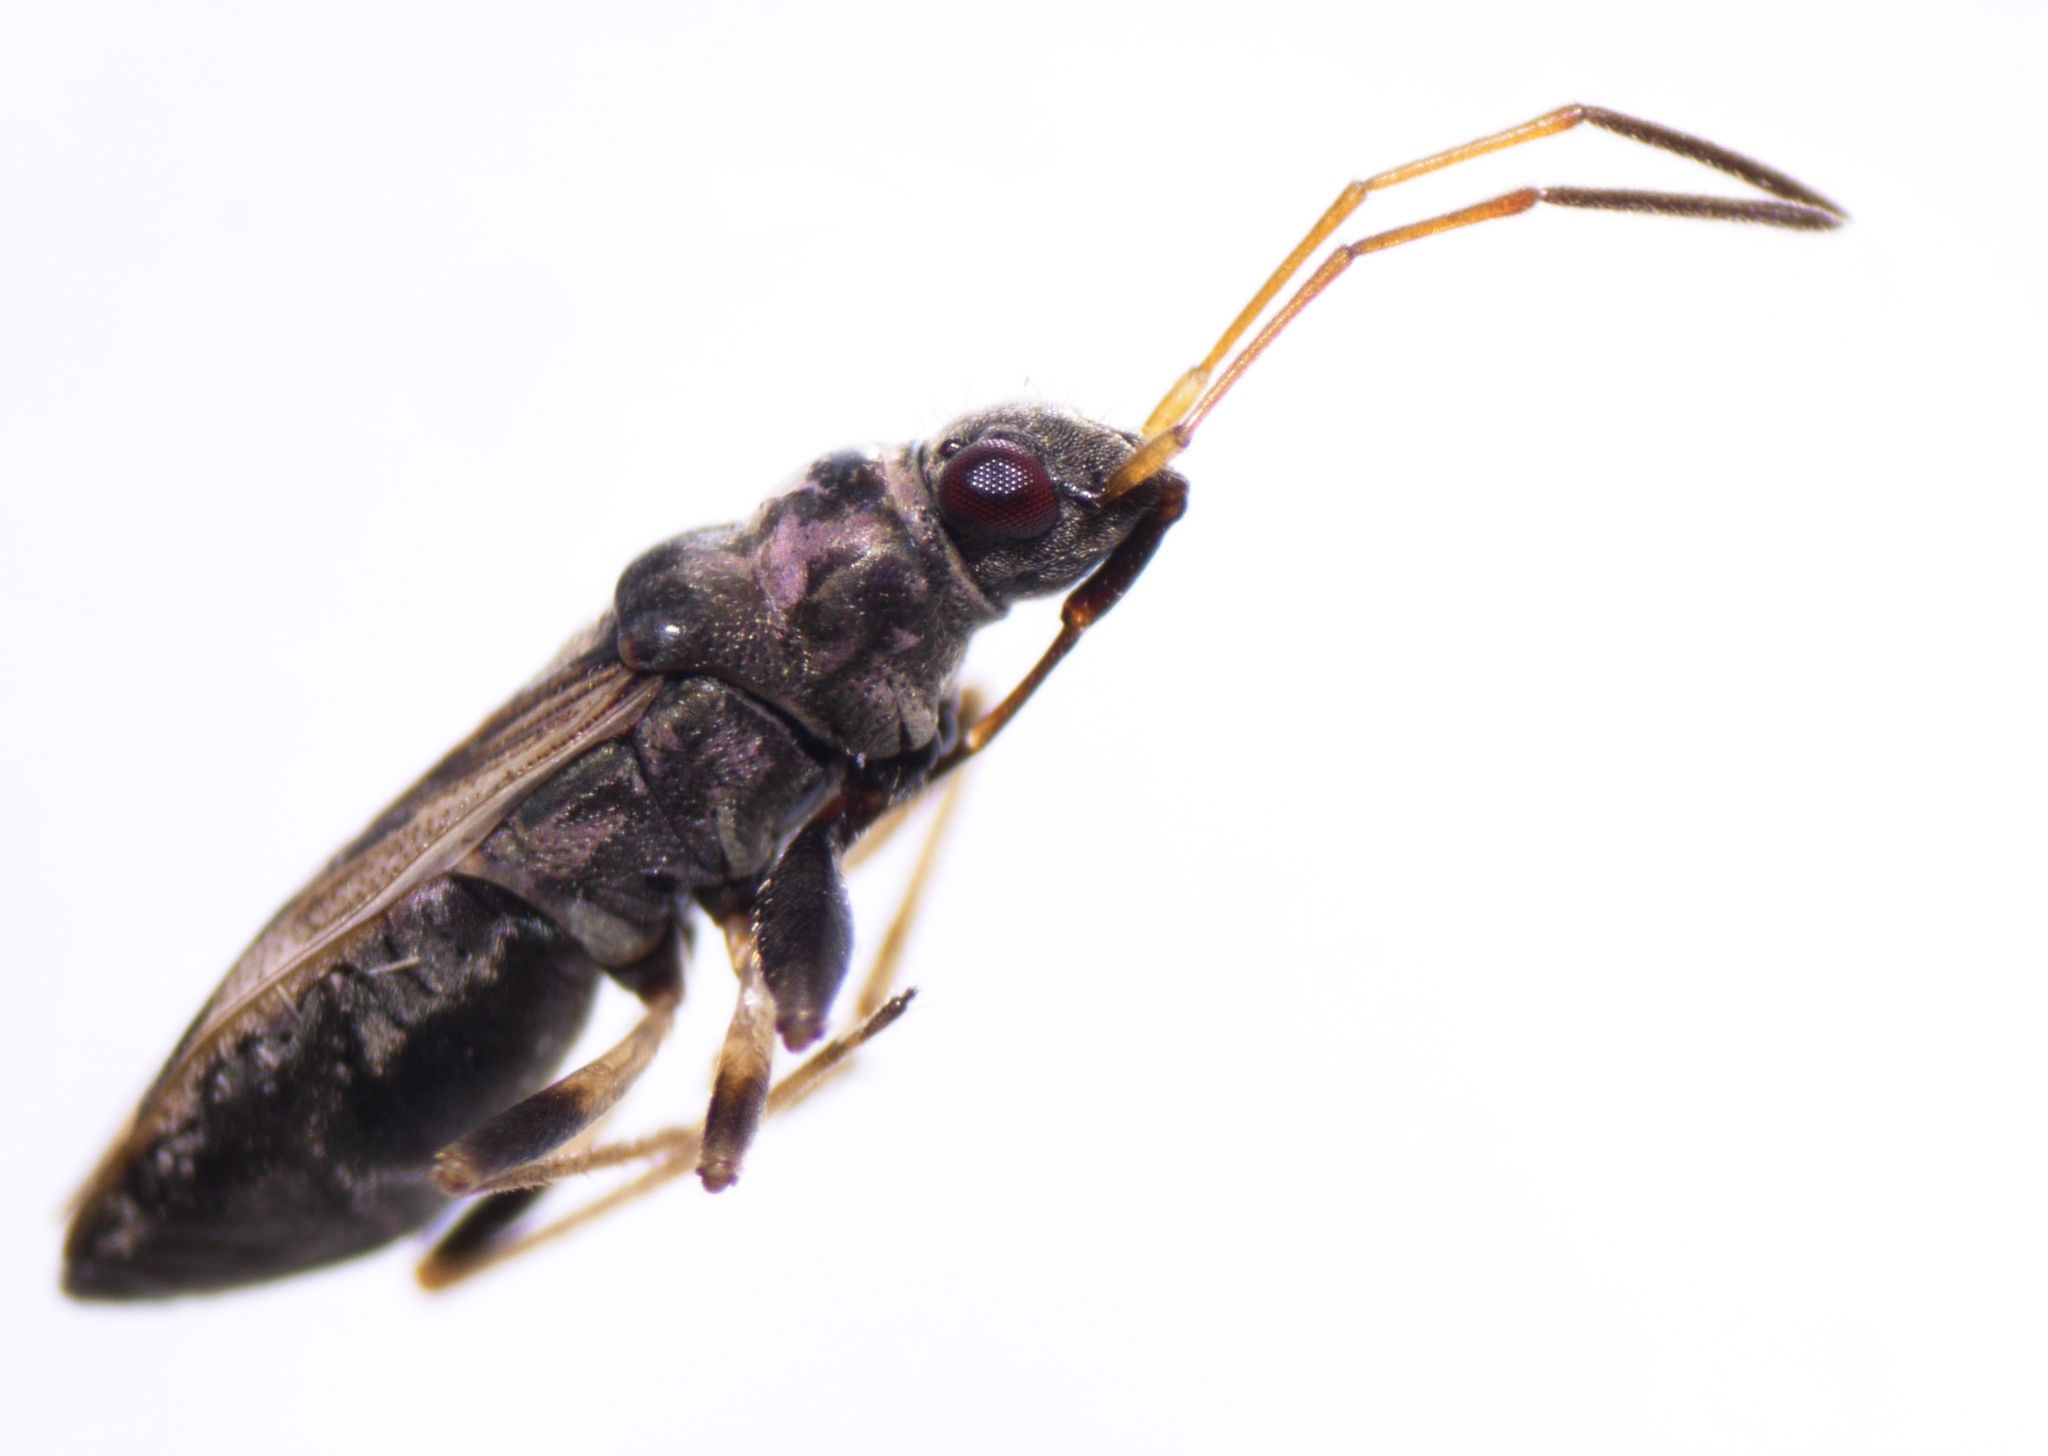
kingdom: Animalia
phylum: Arthropoda
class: Insecta
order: Hemiptera
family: Rhyparochromidae
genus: Pseudopachybrachius
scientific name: Pseudopachybrachius guttus
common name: Seed bug
